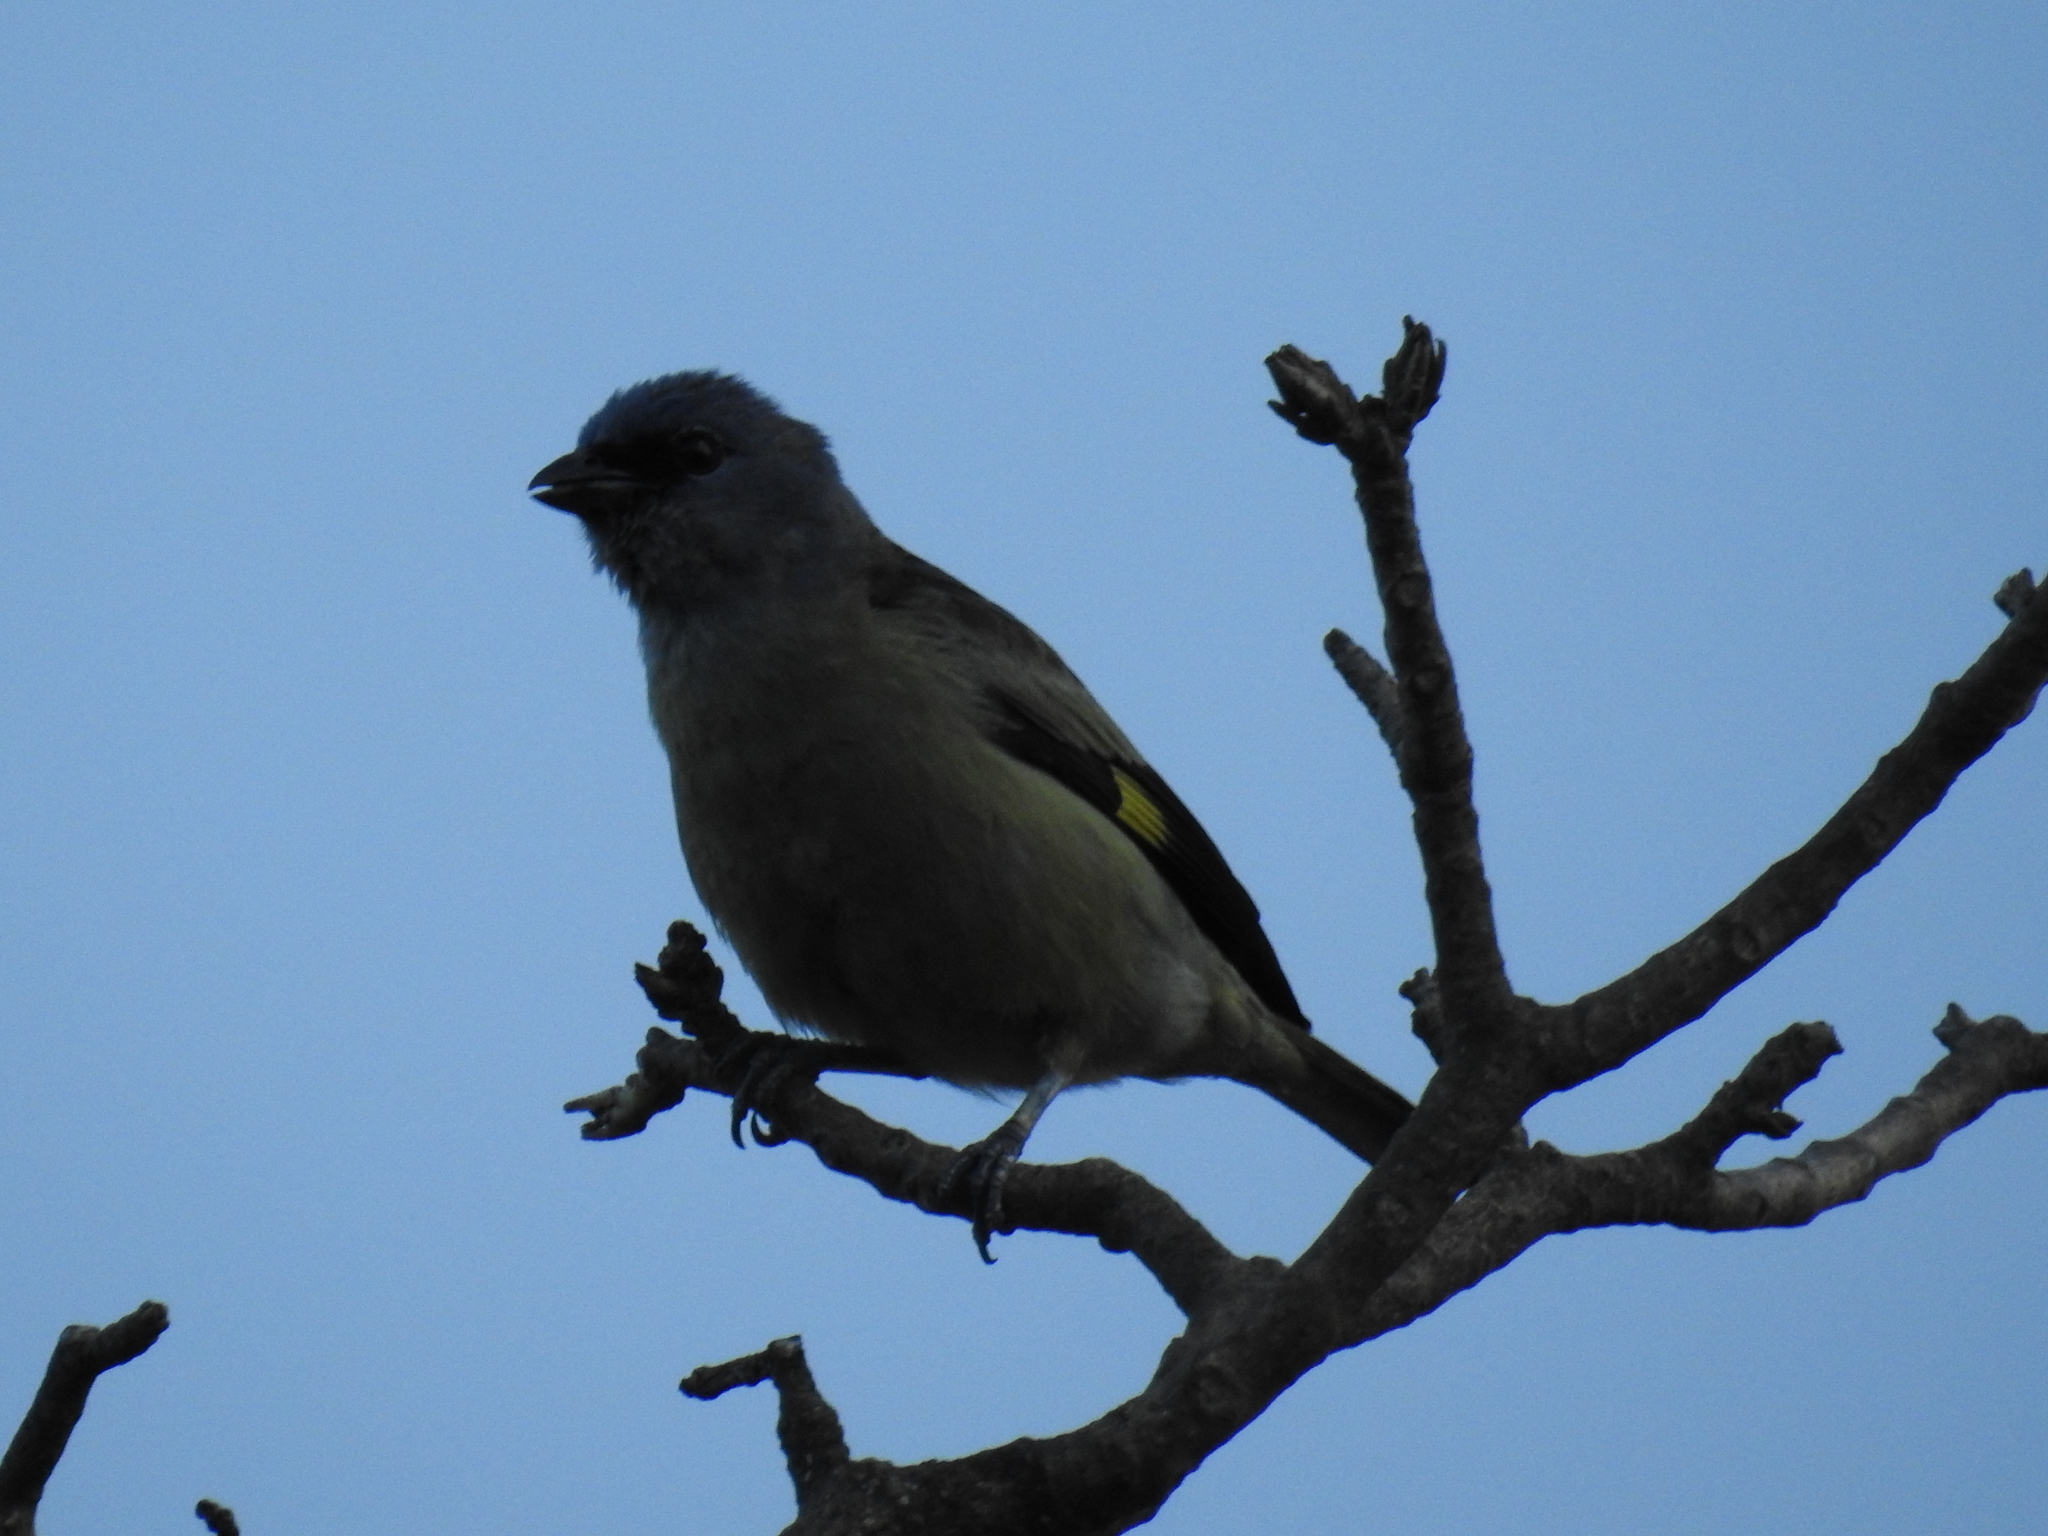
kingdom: Animalia
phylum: Chordata
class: Aves
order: Passeriformes
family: Thraupidae
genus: Thraupis
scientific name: Thraupis abbas
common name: Yellow-winged tanager
